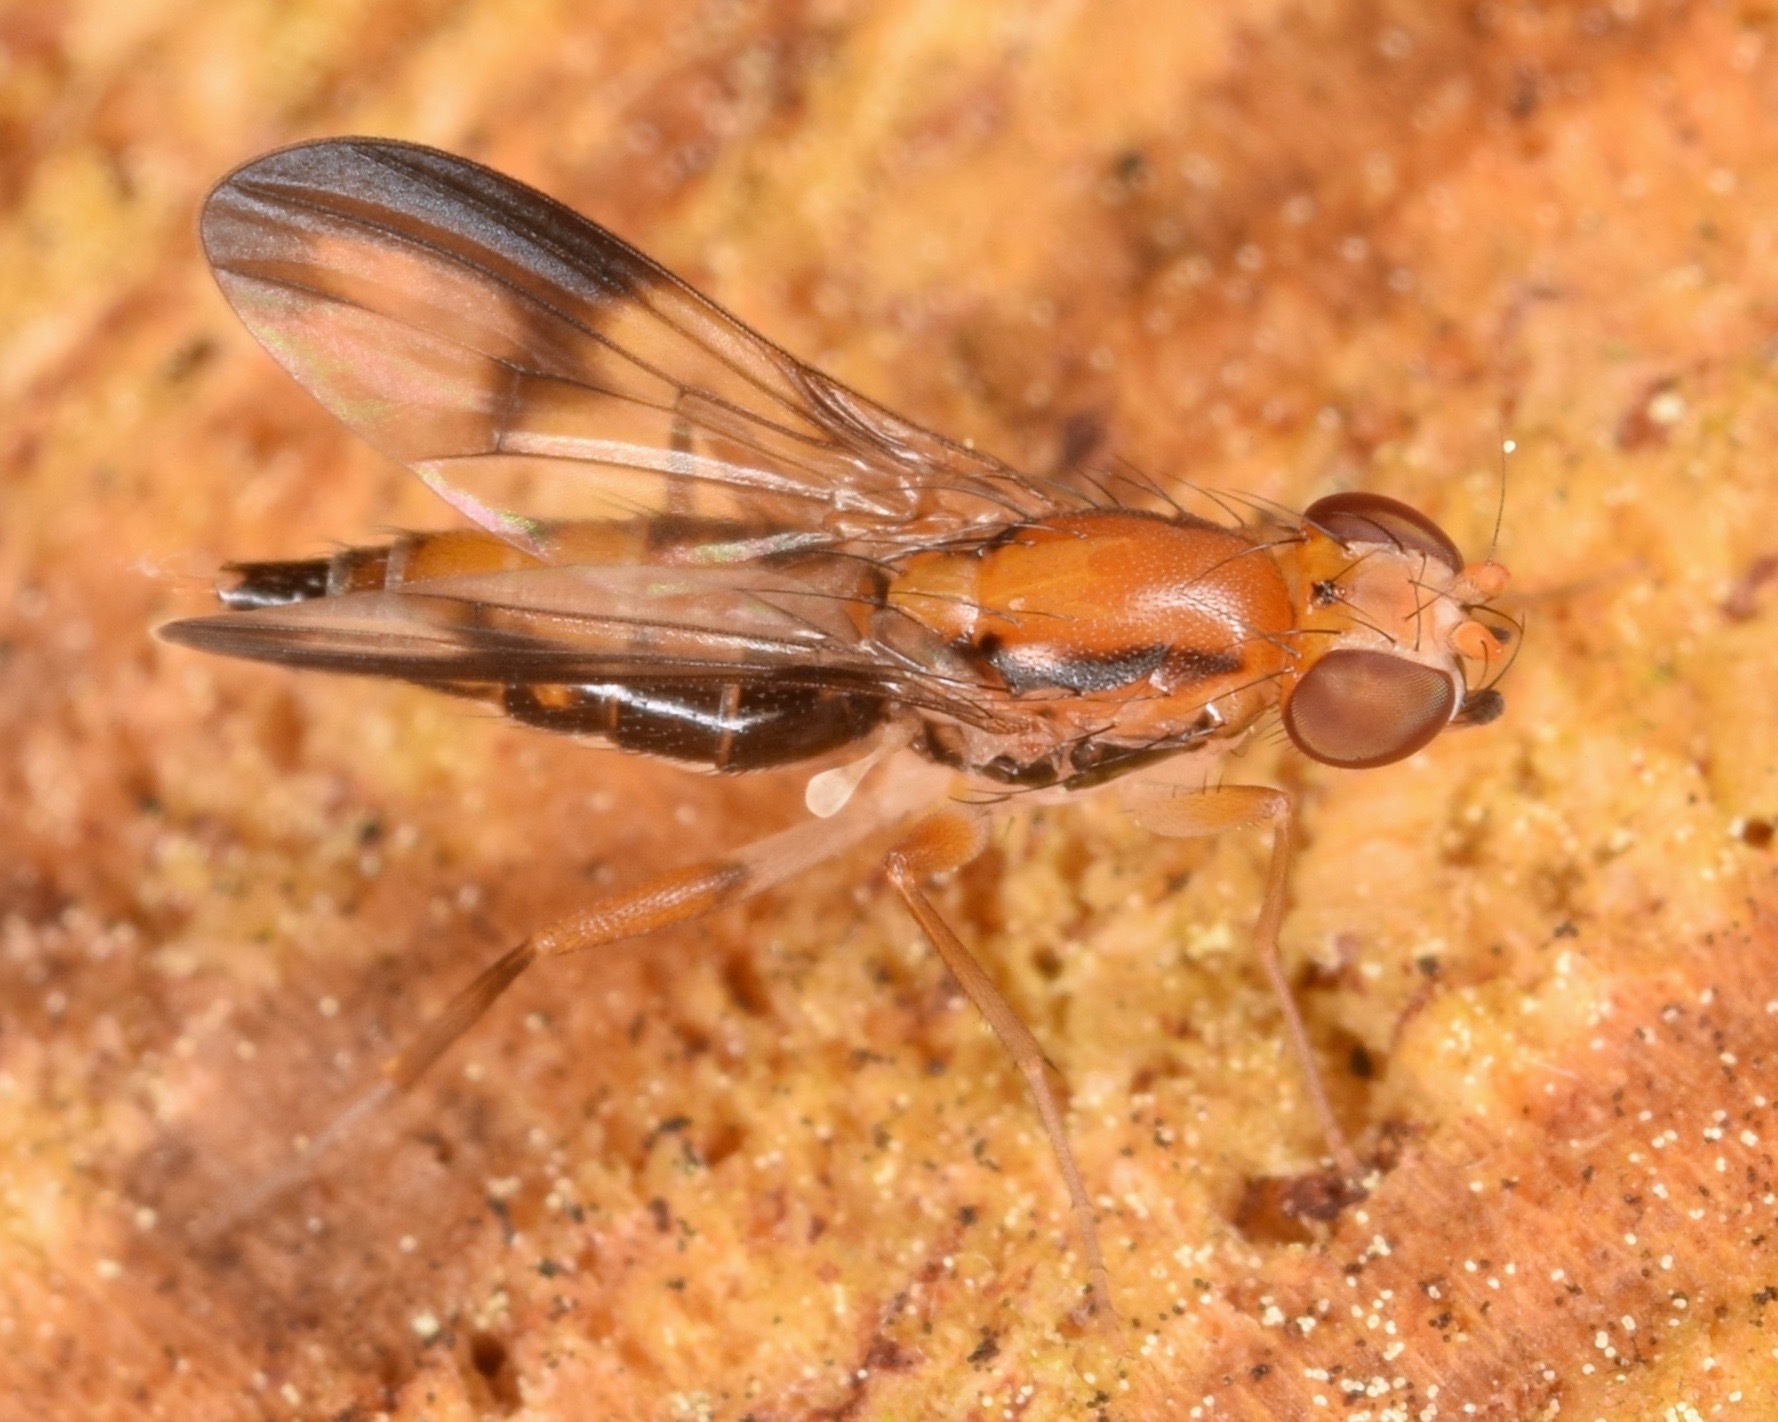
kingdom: Animalia
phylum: Arthropoda
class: Insecta
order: Diptera
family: Clusiidae
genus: Clusia
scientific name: Clusia czernyi
